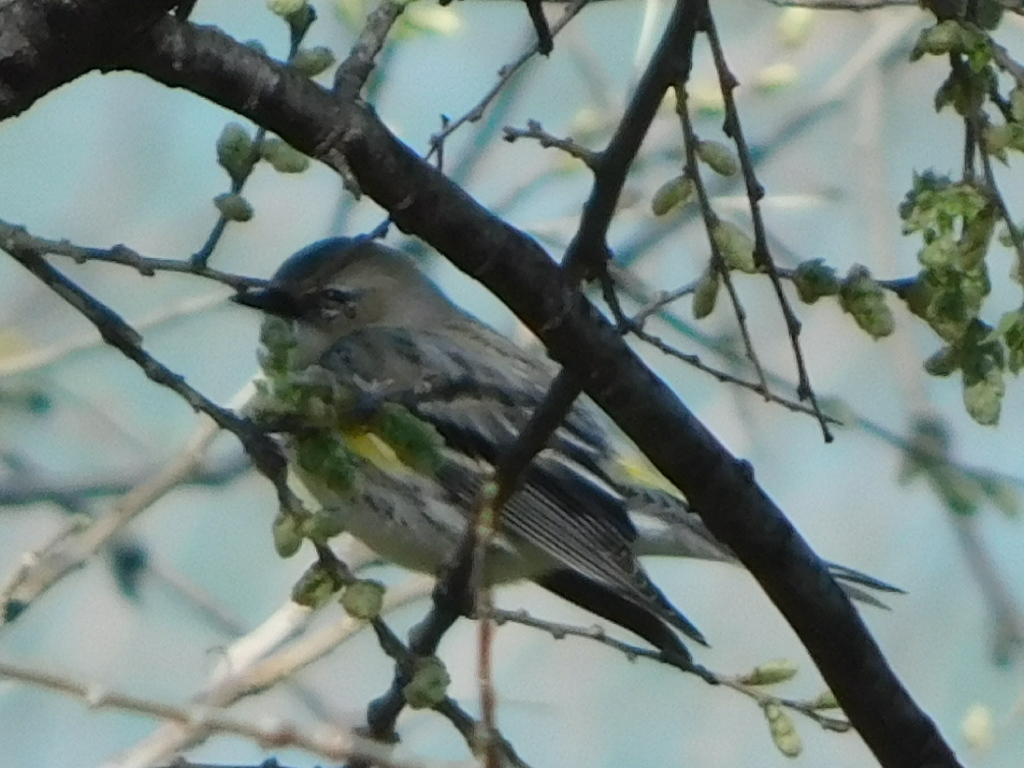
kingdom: Animalia
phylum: Chordata
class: Aves
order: Passeriformes
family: Parulidae
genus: Setophaga
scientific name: Setophaga coronata
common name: Myrtle warbler
